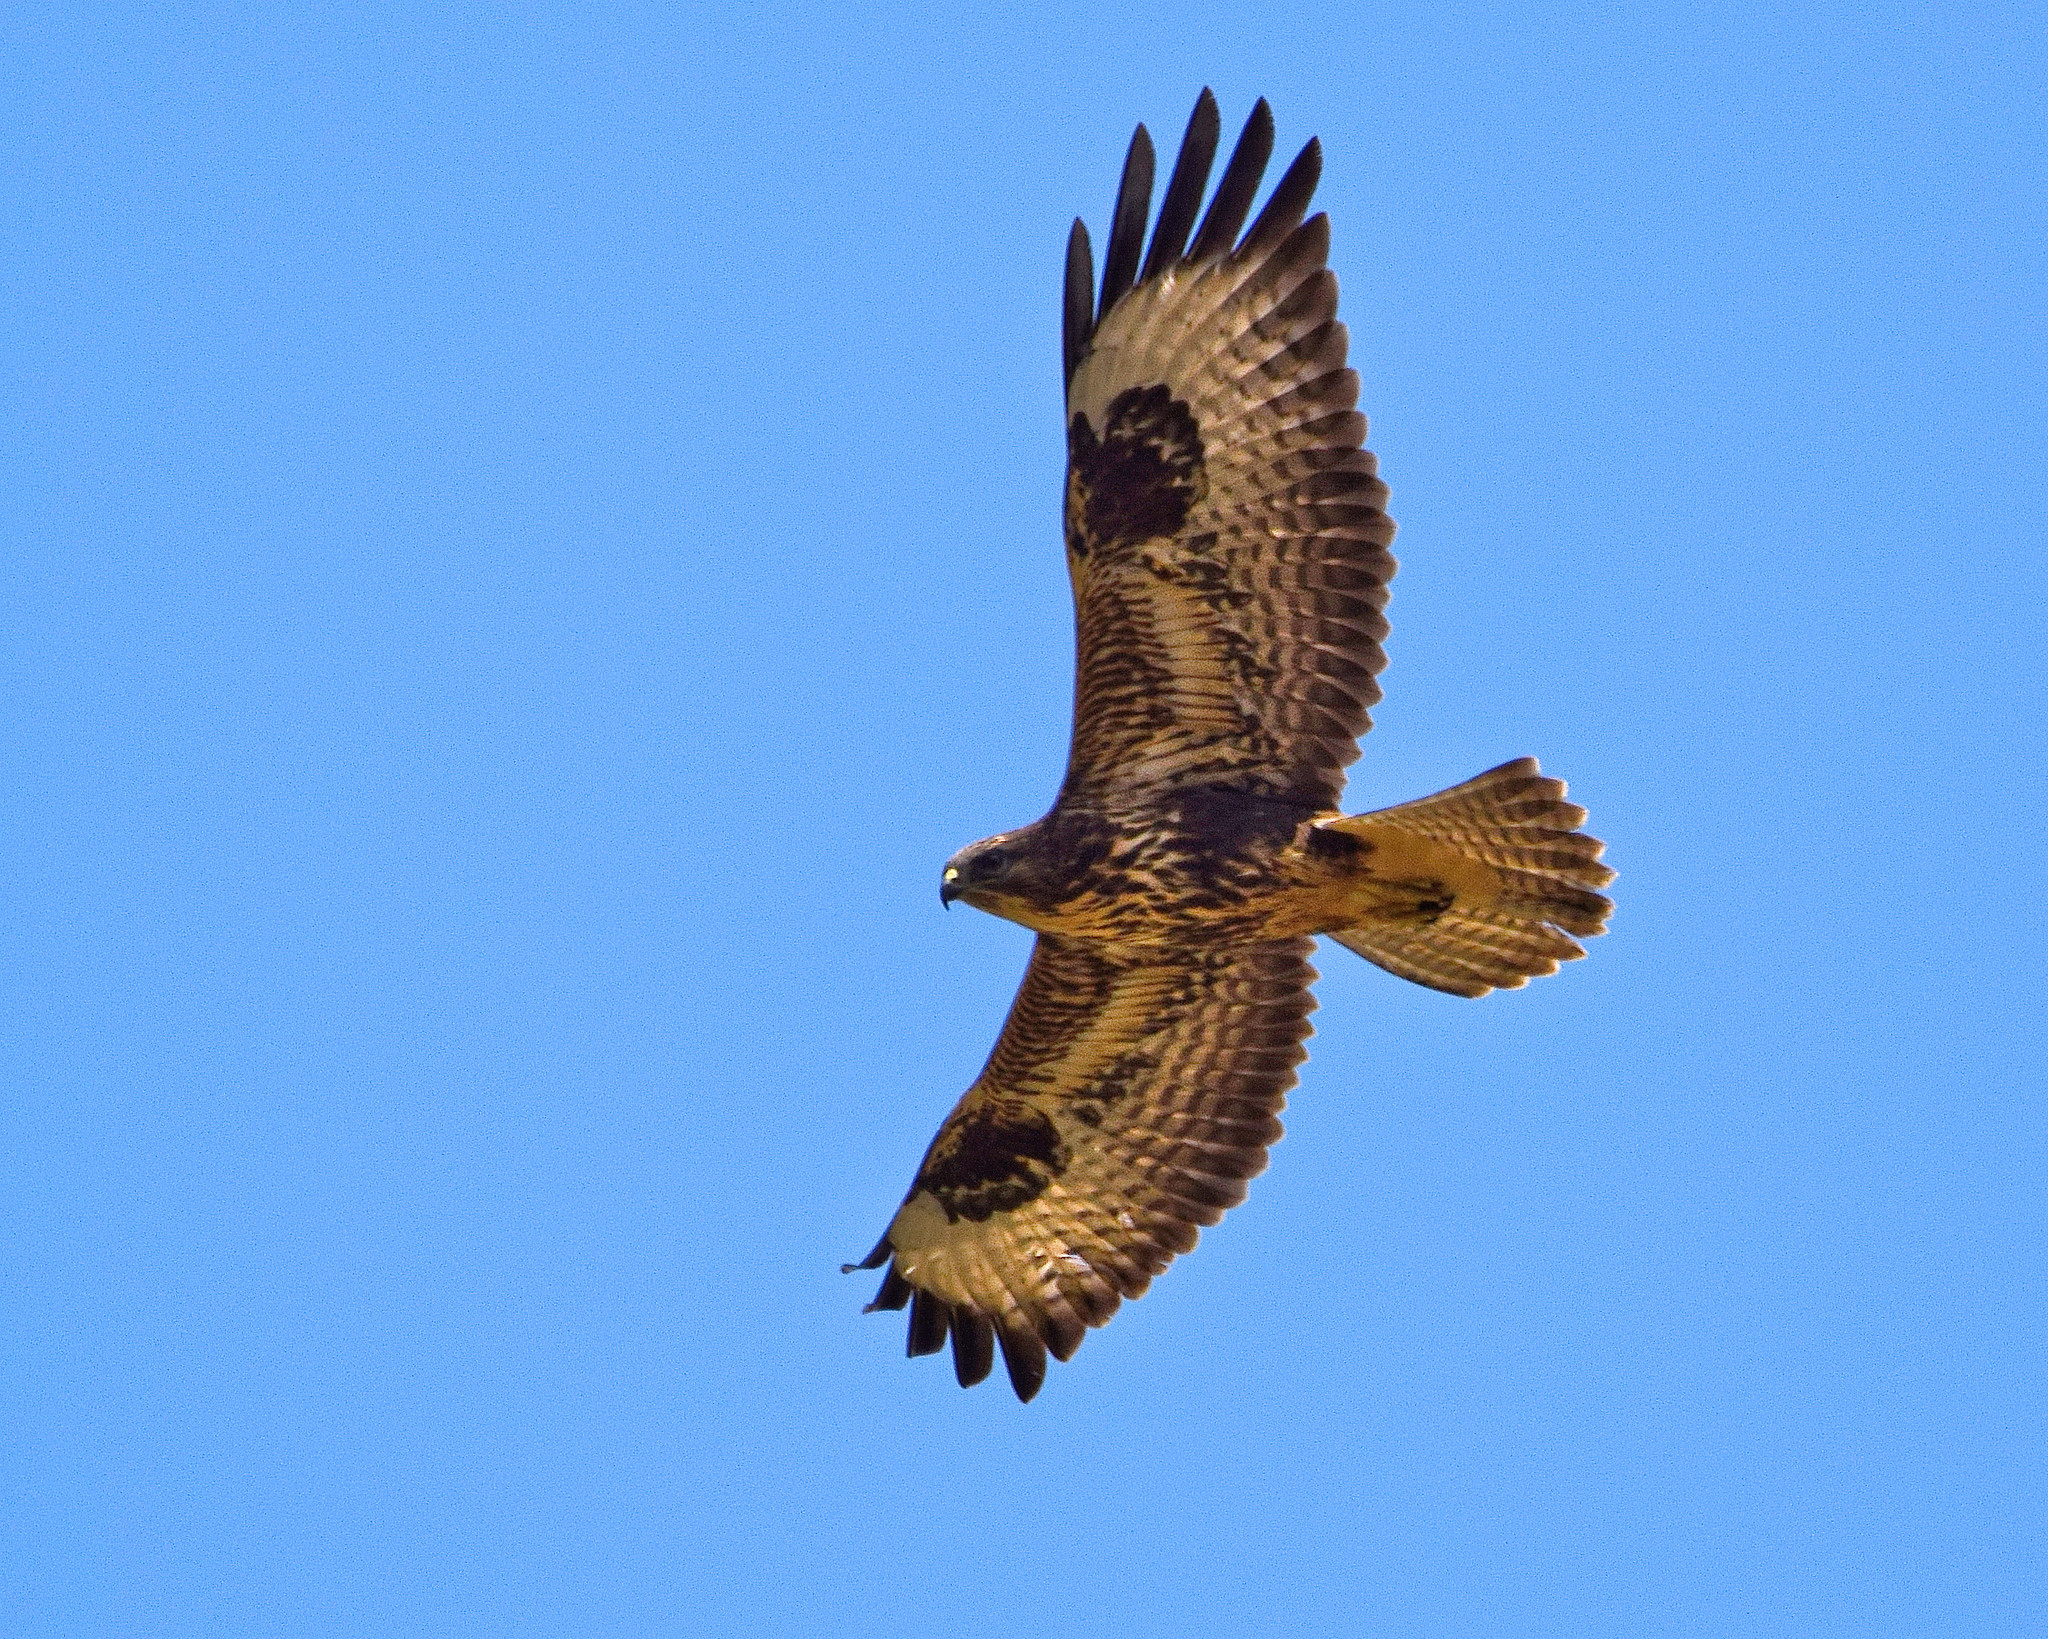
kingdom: Animalia
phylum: Chordata
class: Aves
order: Accipitriformes
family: Accipitridae
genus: Buteo
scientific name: Buteo buteo
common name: Common buzzard
